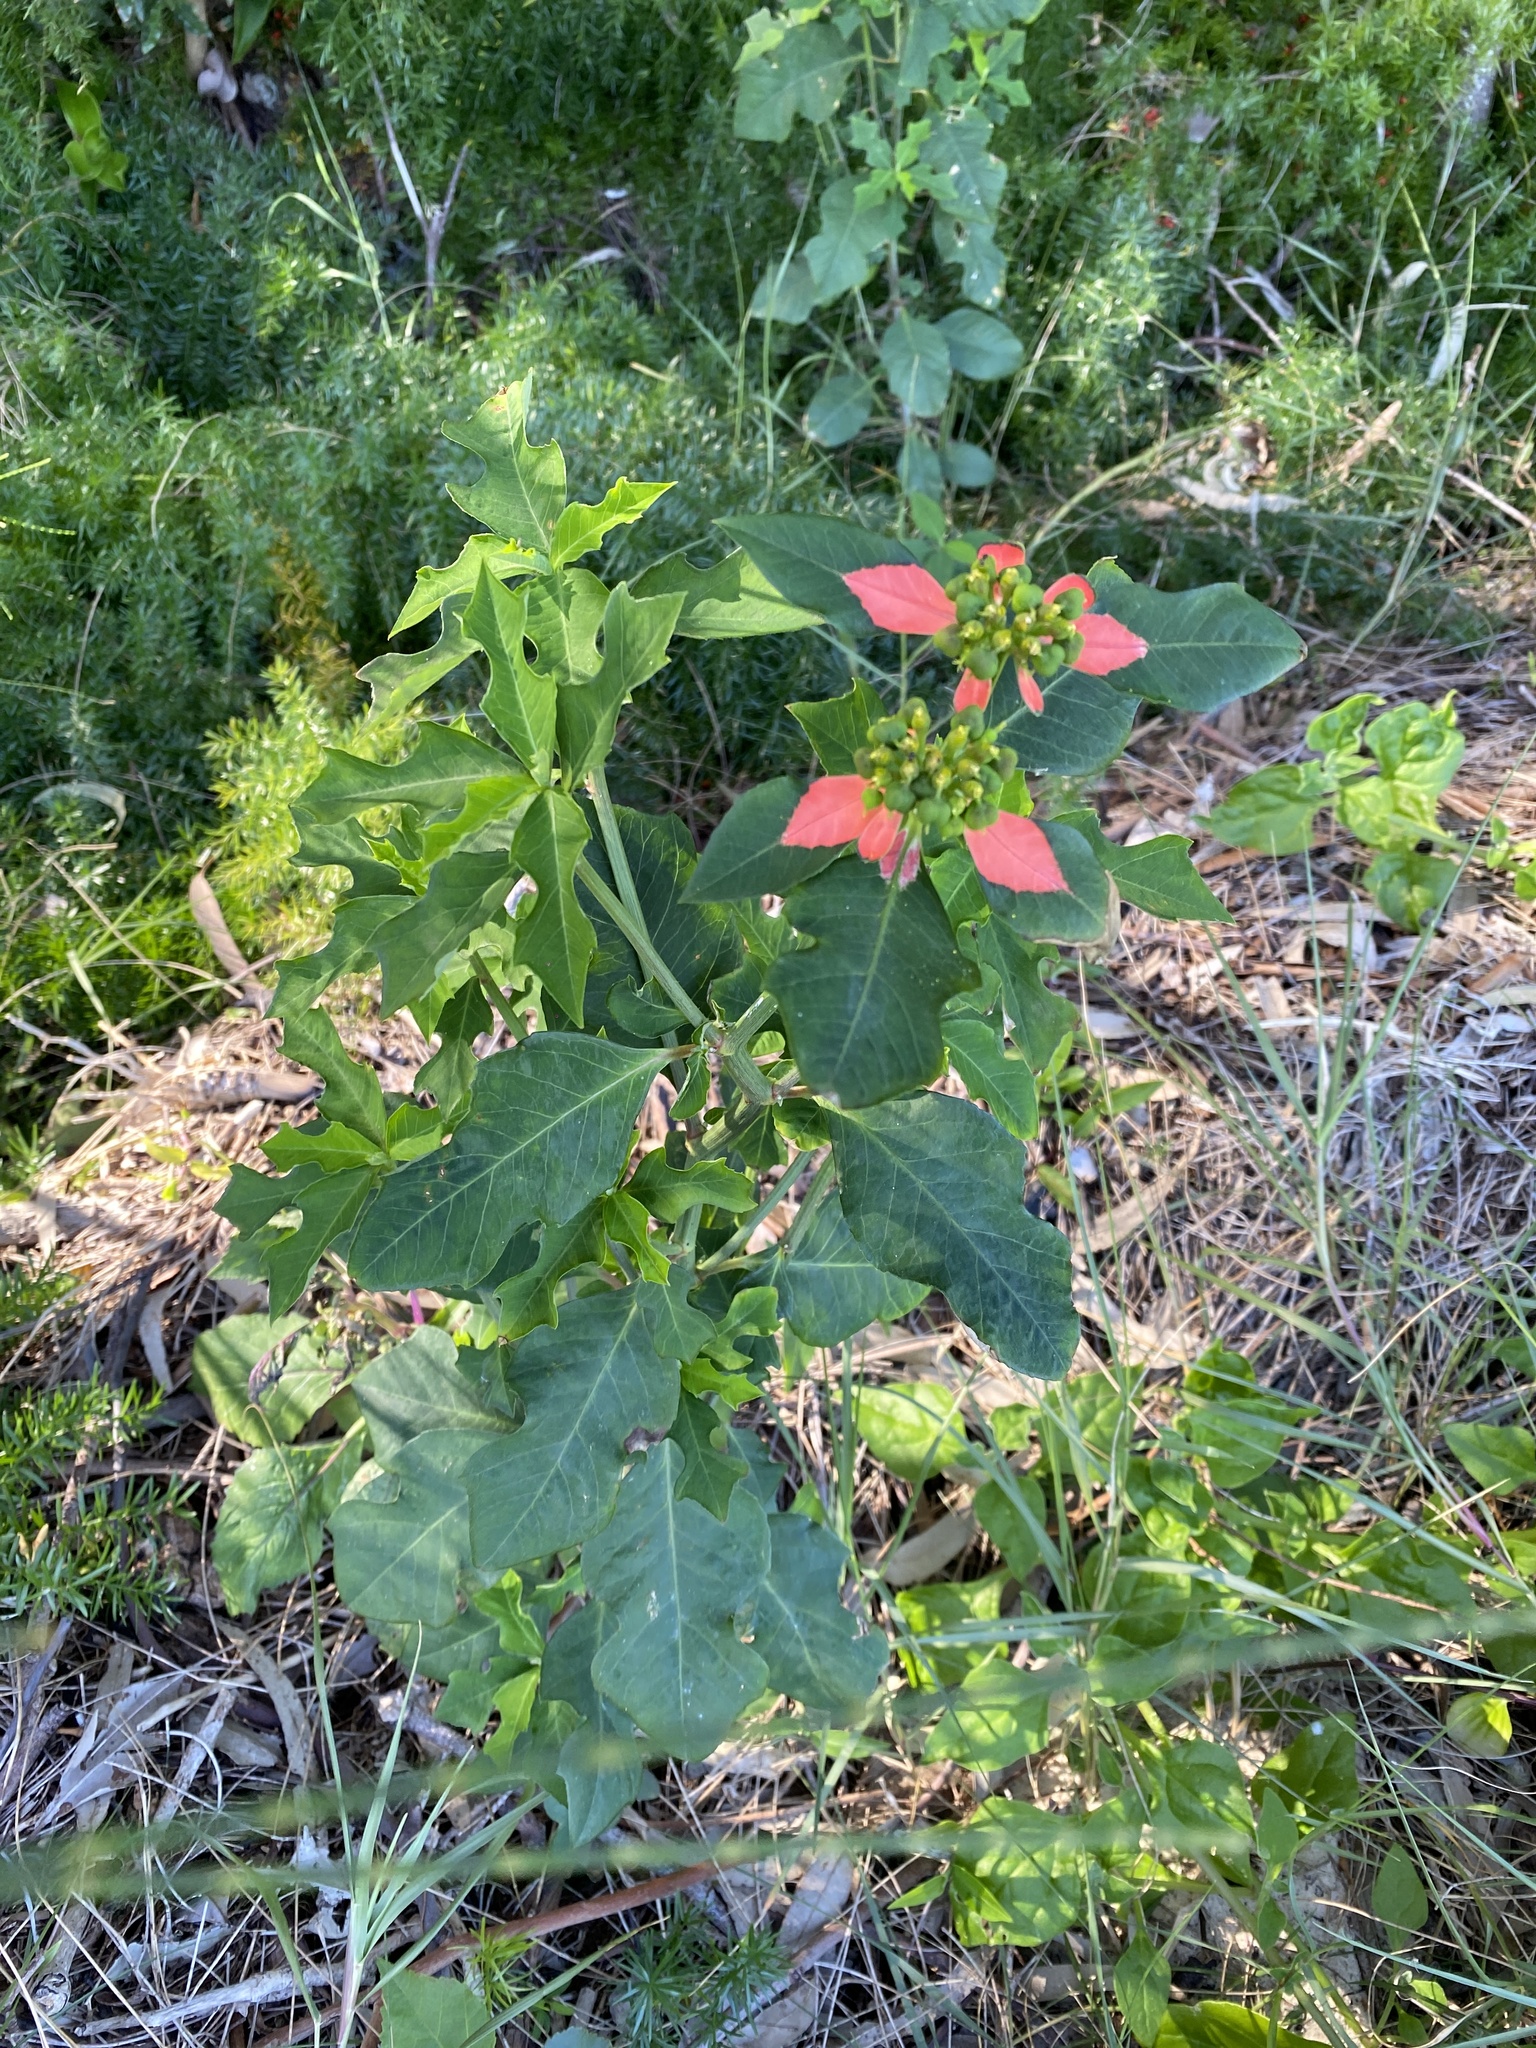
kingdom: Plantae
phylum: Tracheophyta
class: Magnoliopsida
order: Malpighiales
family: Euphorbiaceae
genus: Euphorbia
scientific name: Euphorbia heterophylla
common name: Mexican fireplant
